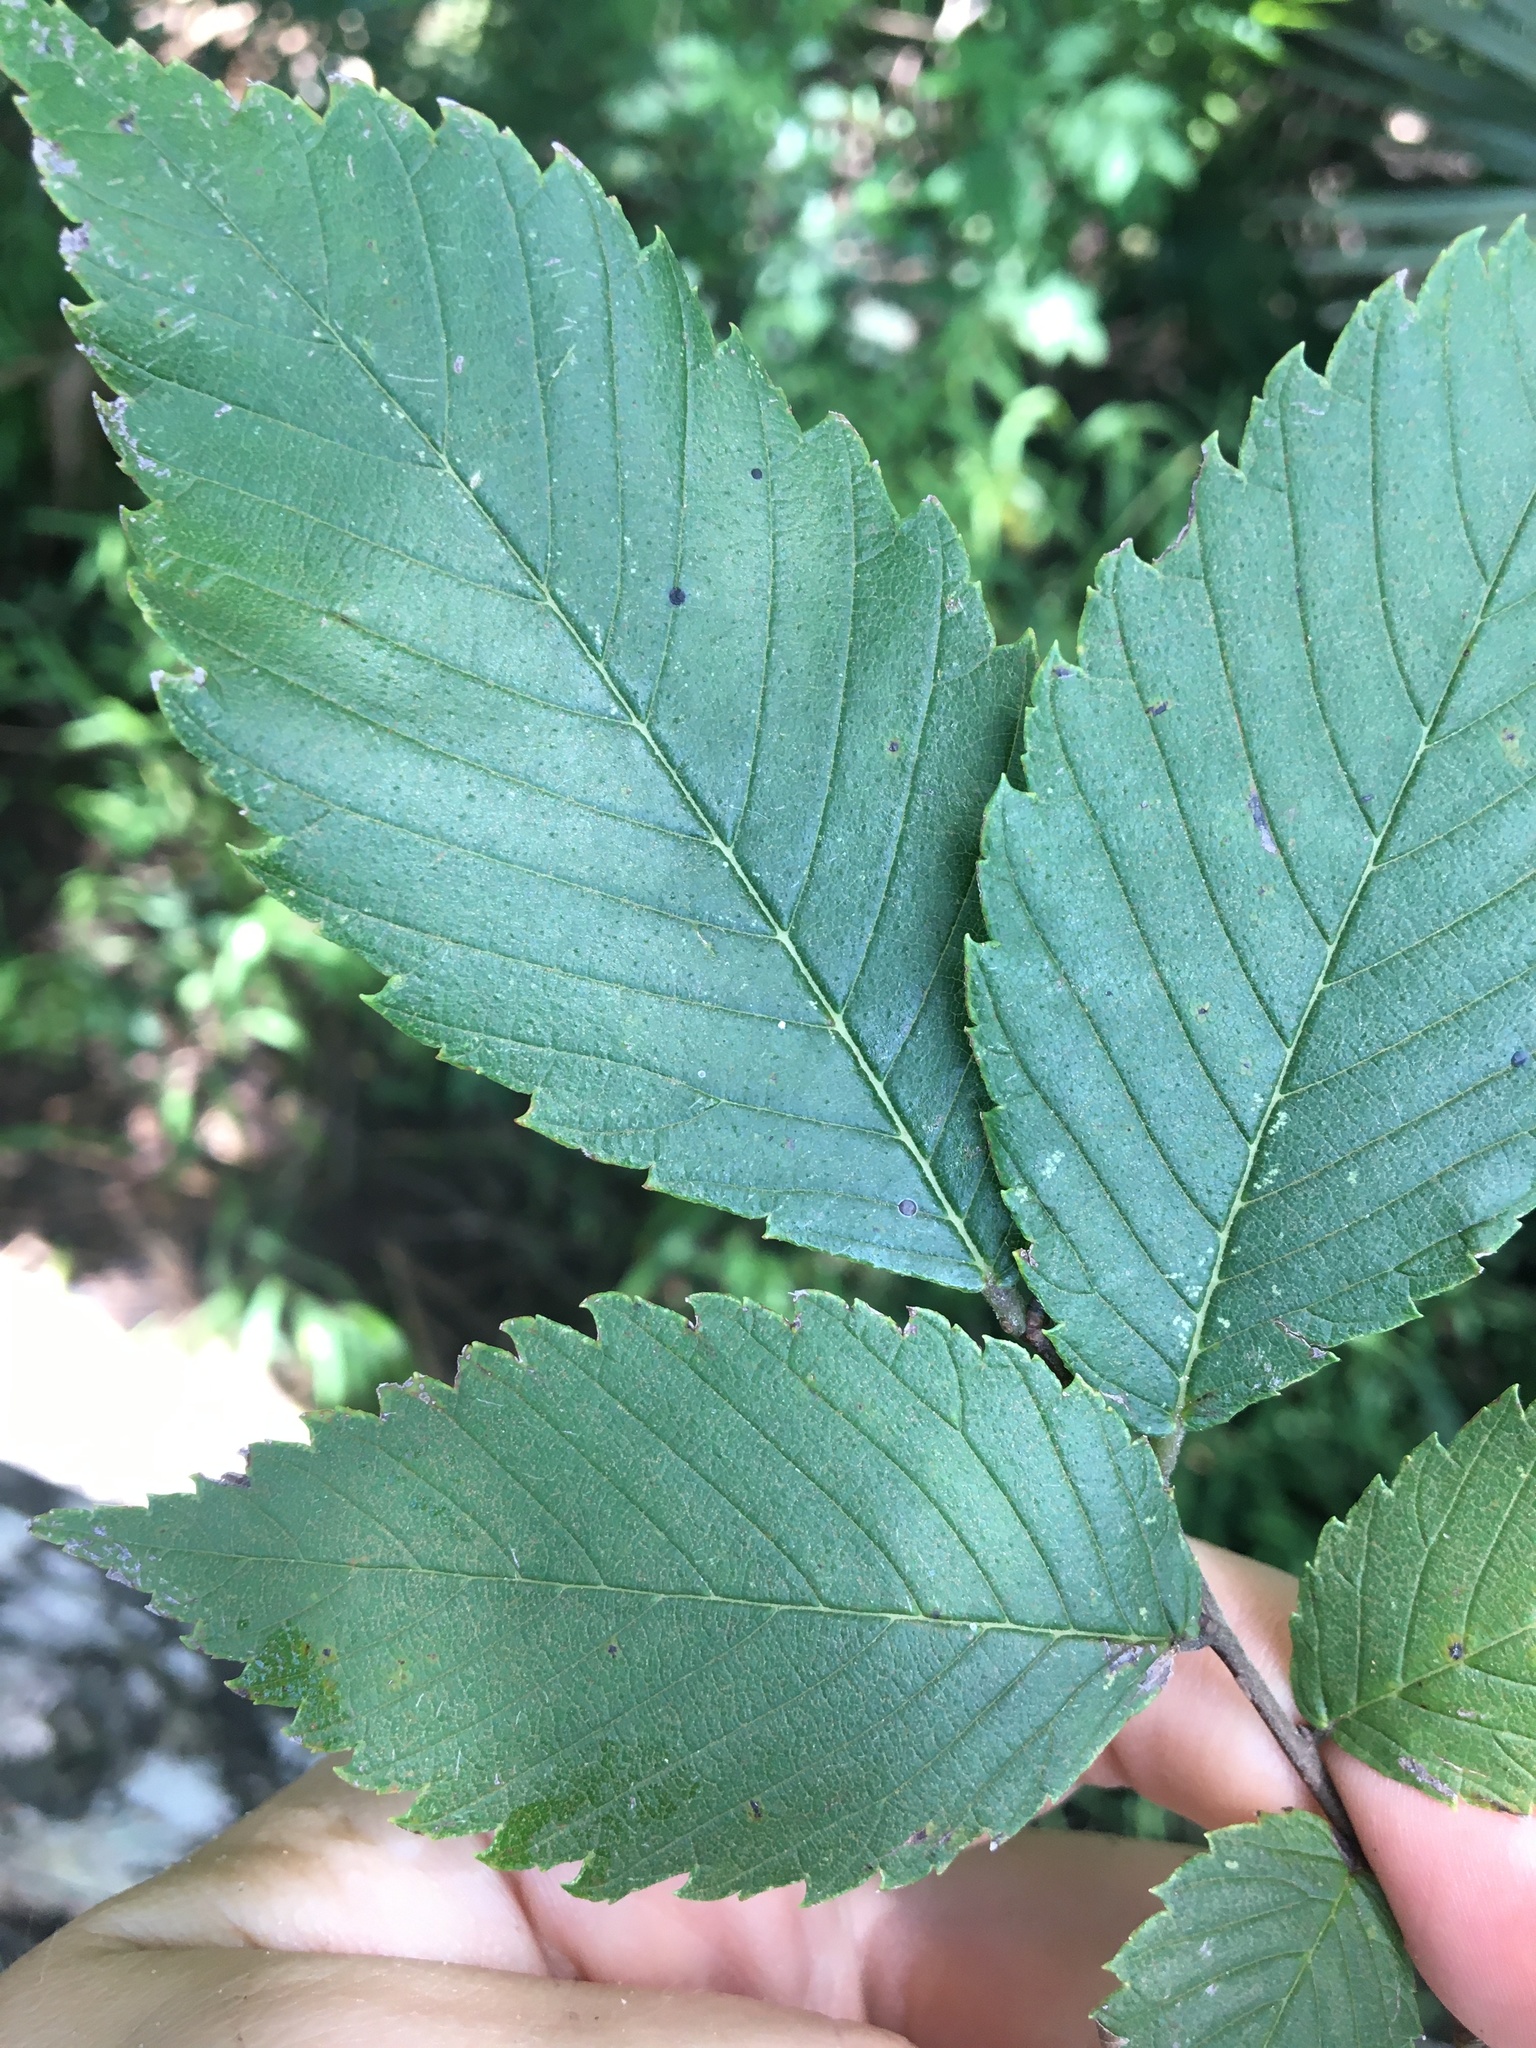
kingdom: Plantae
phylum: Tracheophyta
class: Magnoliopsida
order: Rosales
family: Ulmaceae
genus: Ulmus
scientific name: Ulmus americana
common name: American elm
